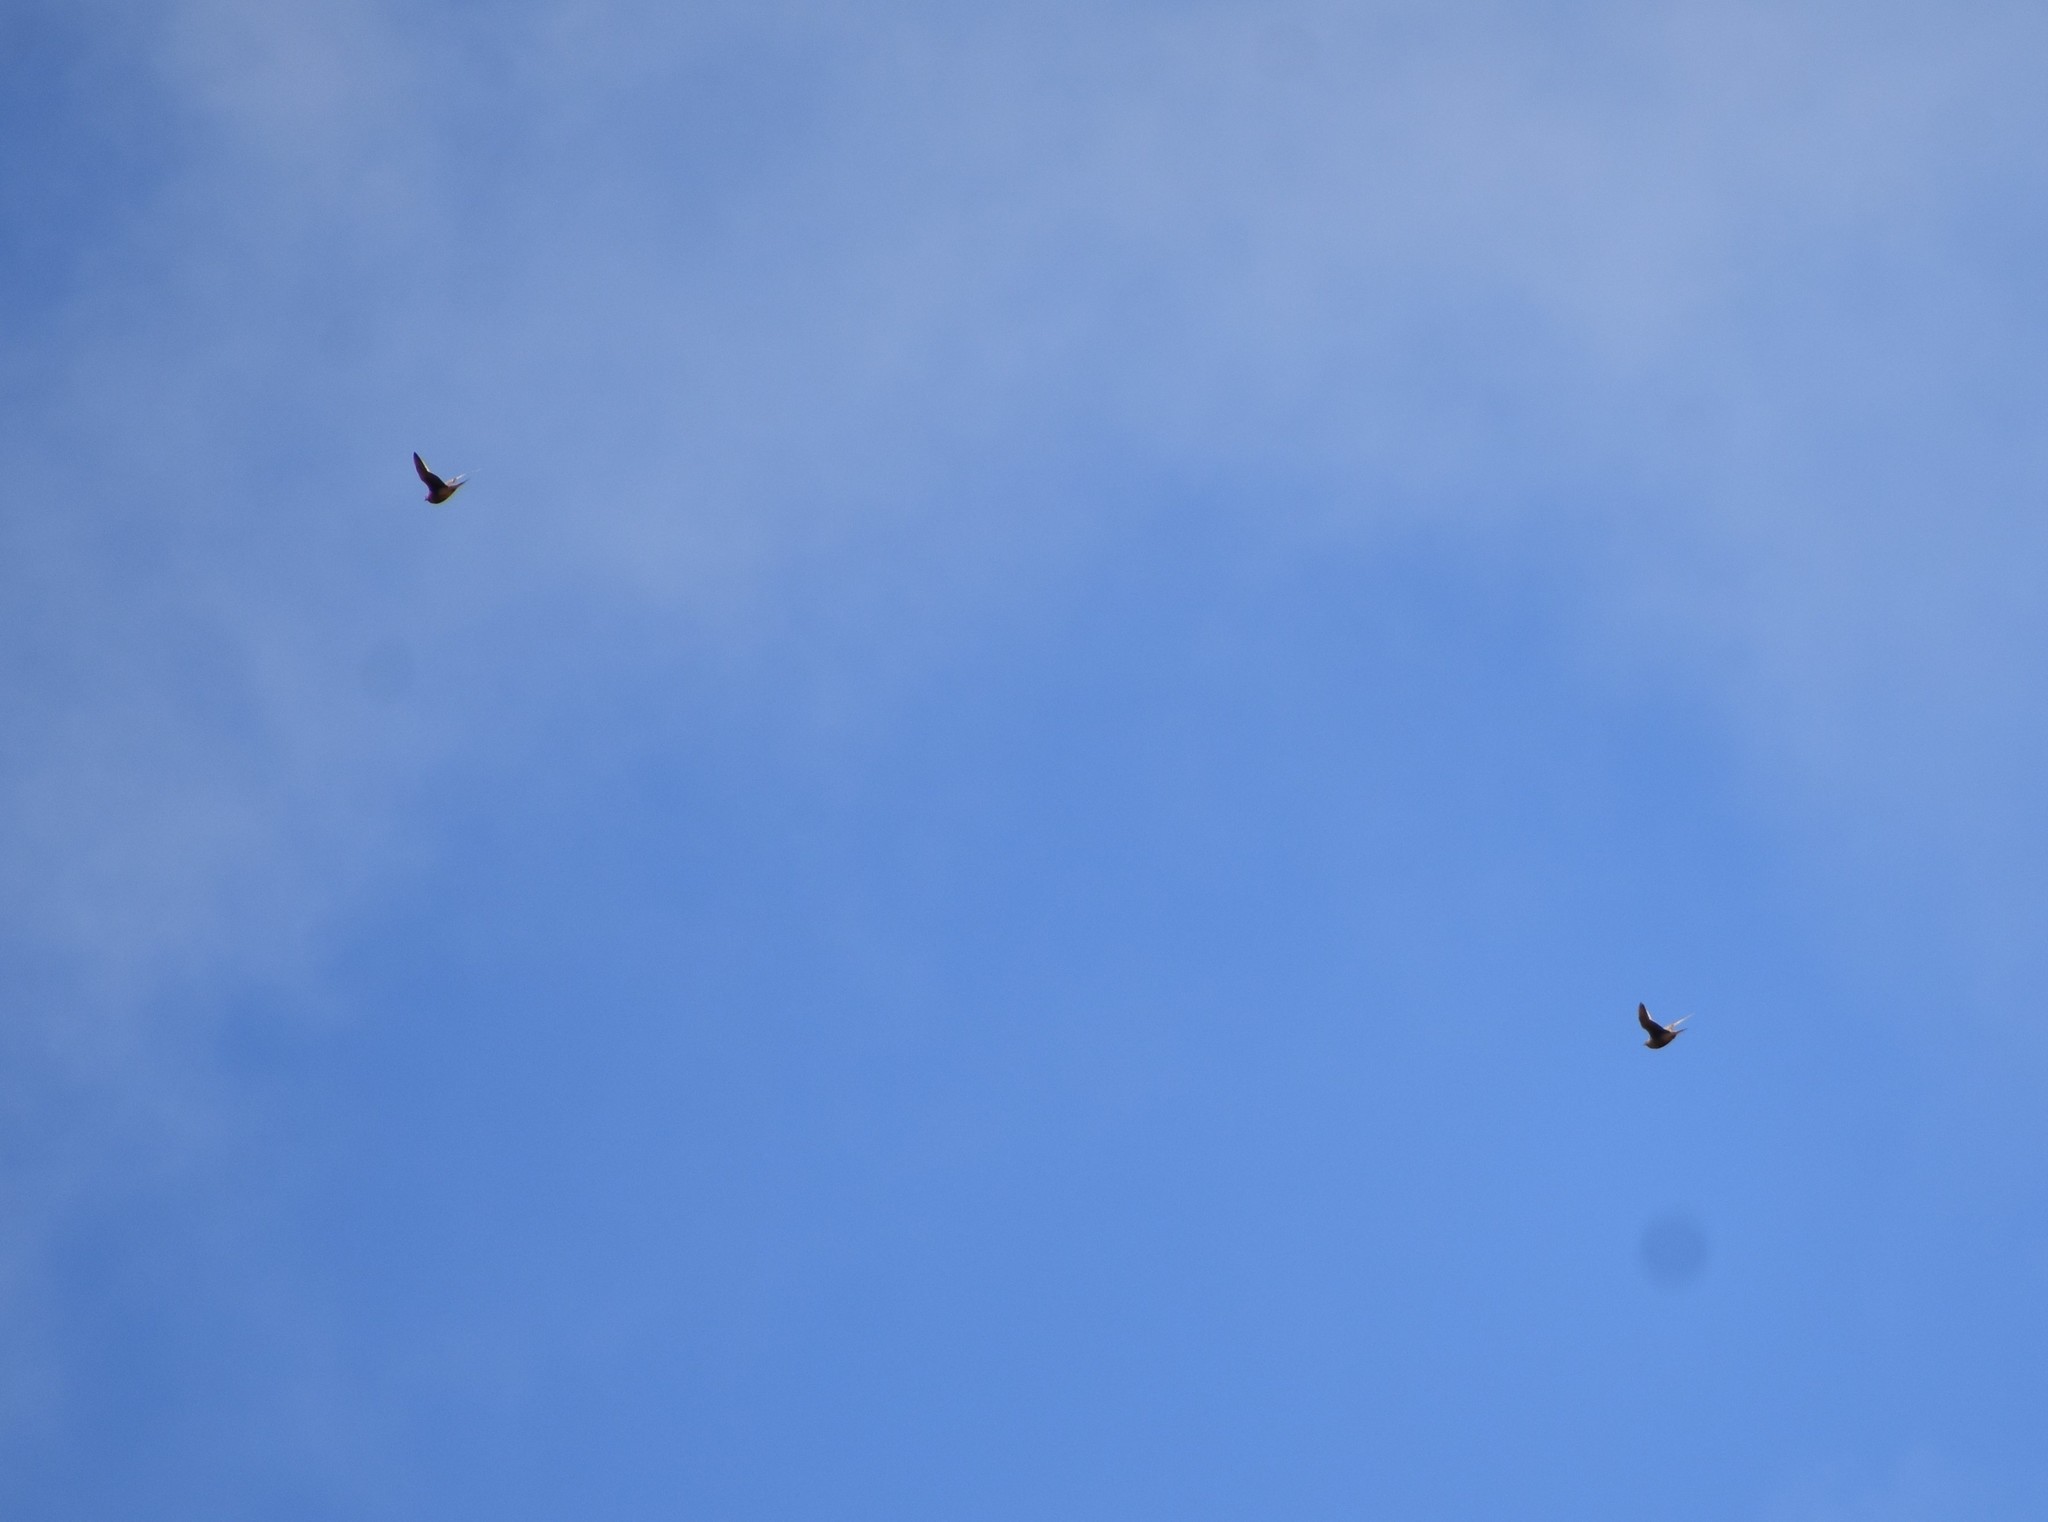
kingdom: Animalia
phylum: Chordata
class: Aves
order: Pteroclidiformes
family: Pteroclididae
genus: Pterocles
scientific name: Pterocles namaqua
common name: Namaqua sandgrouse
